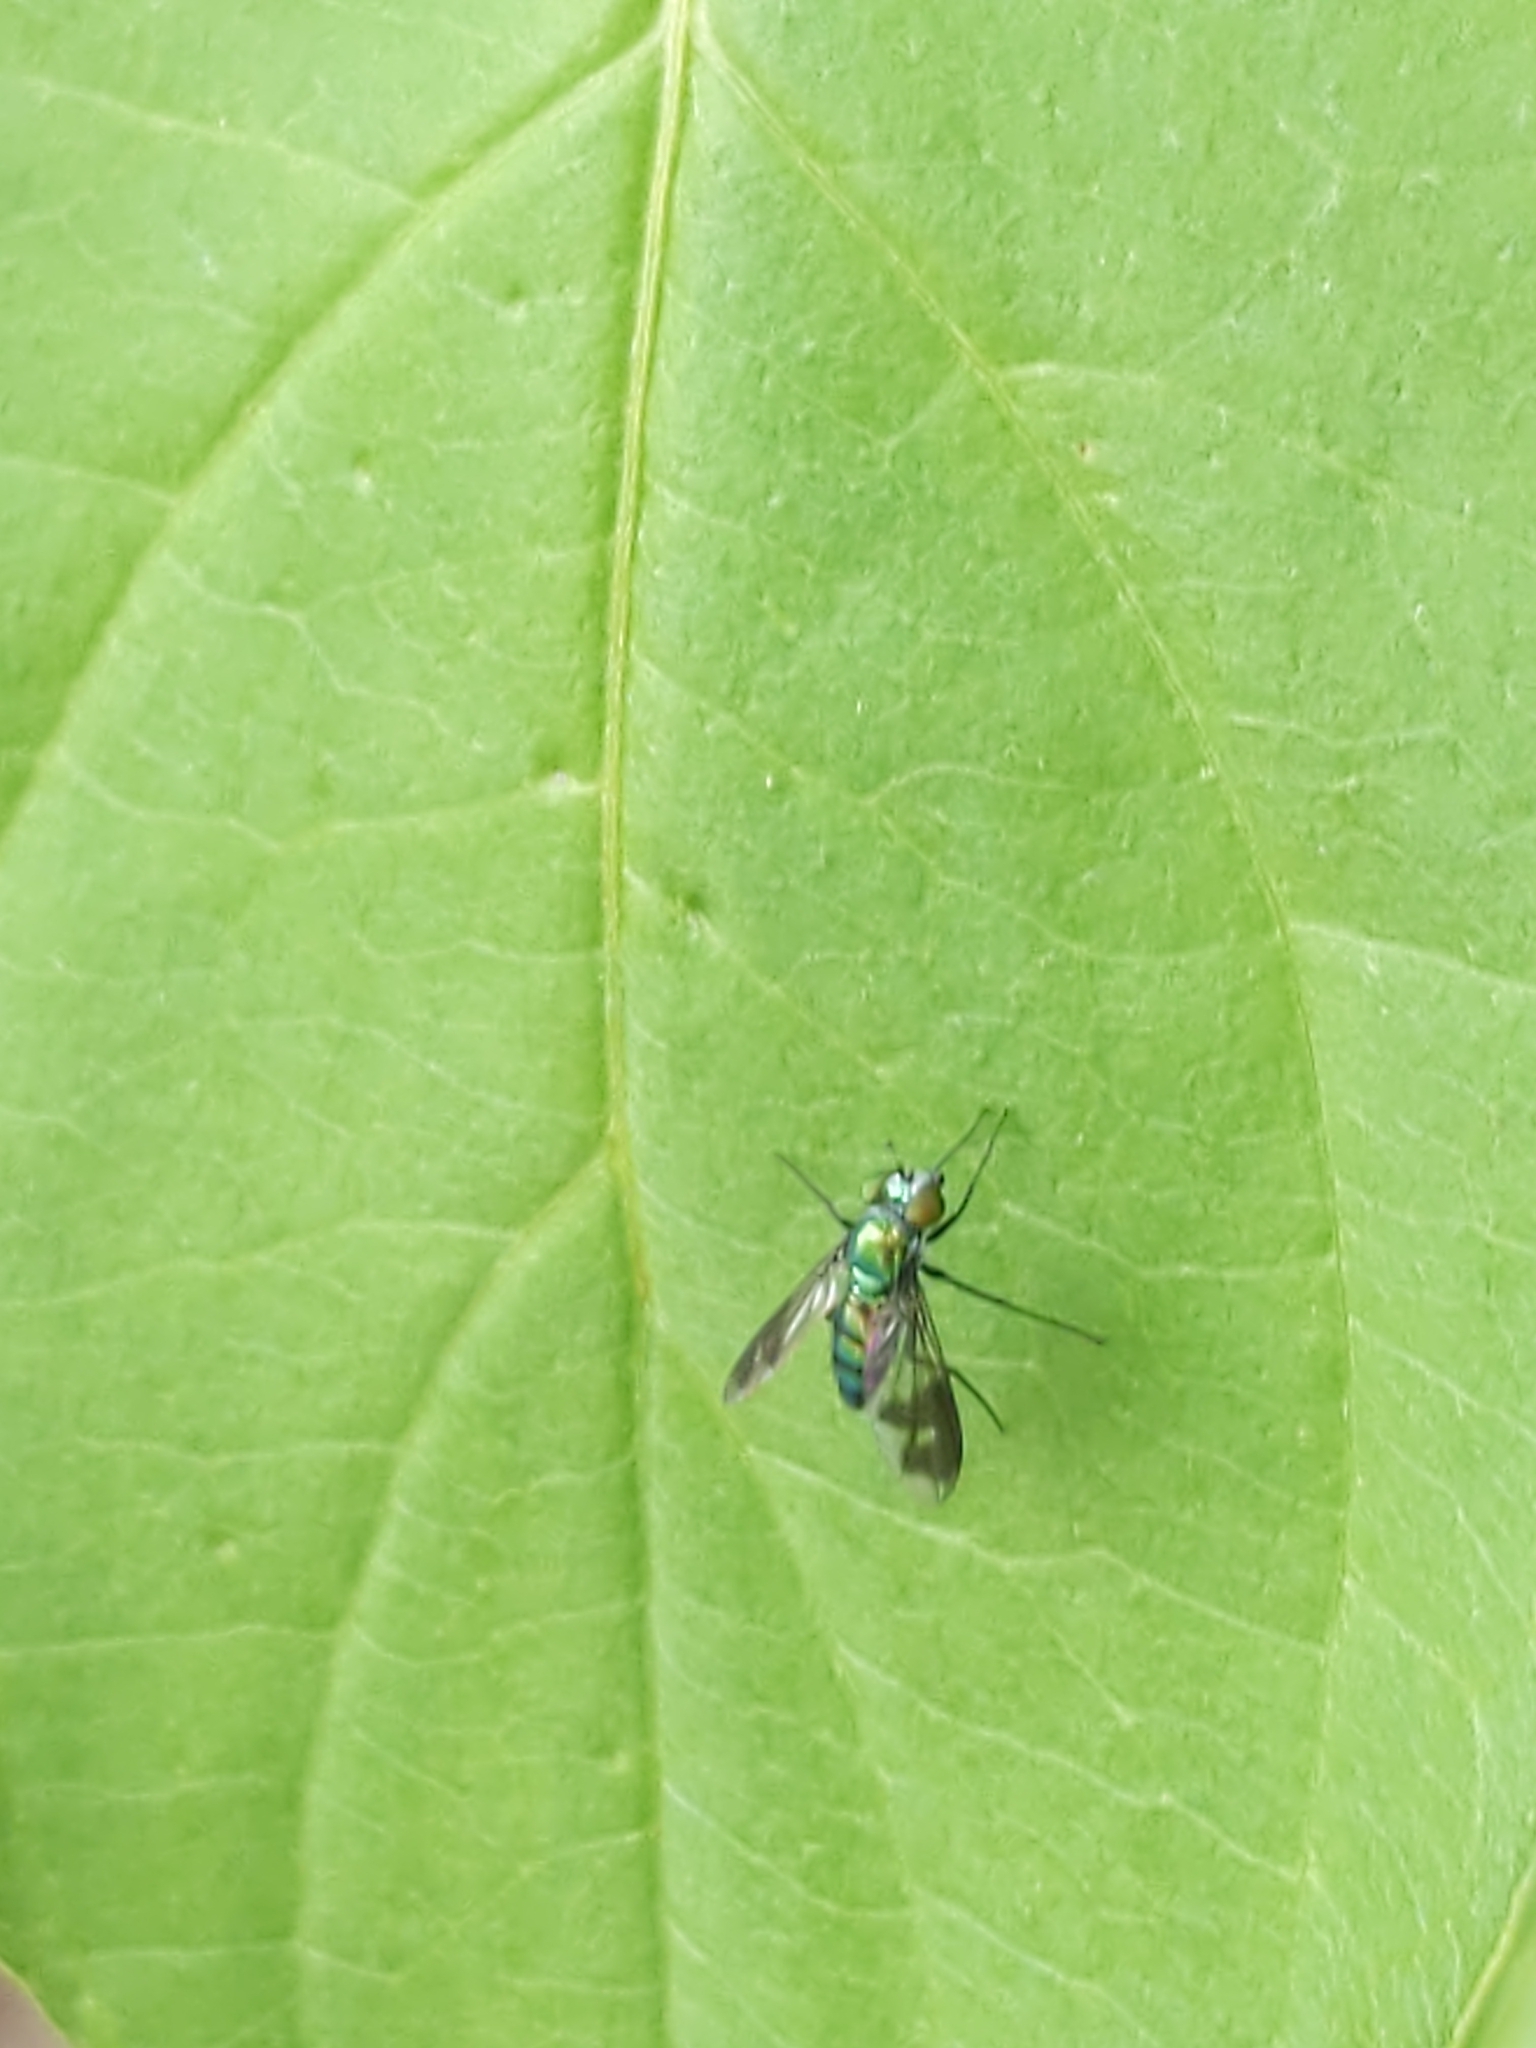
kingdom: Animalia
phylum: Arthropoda
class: Insecta
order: Diptera
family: Dolichopodidae
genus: Condylostylus
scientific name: Condylostylus patibulatus
